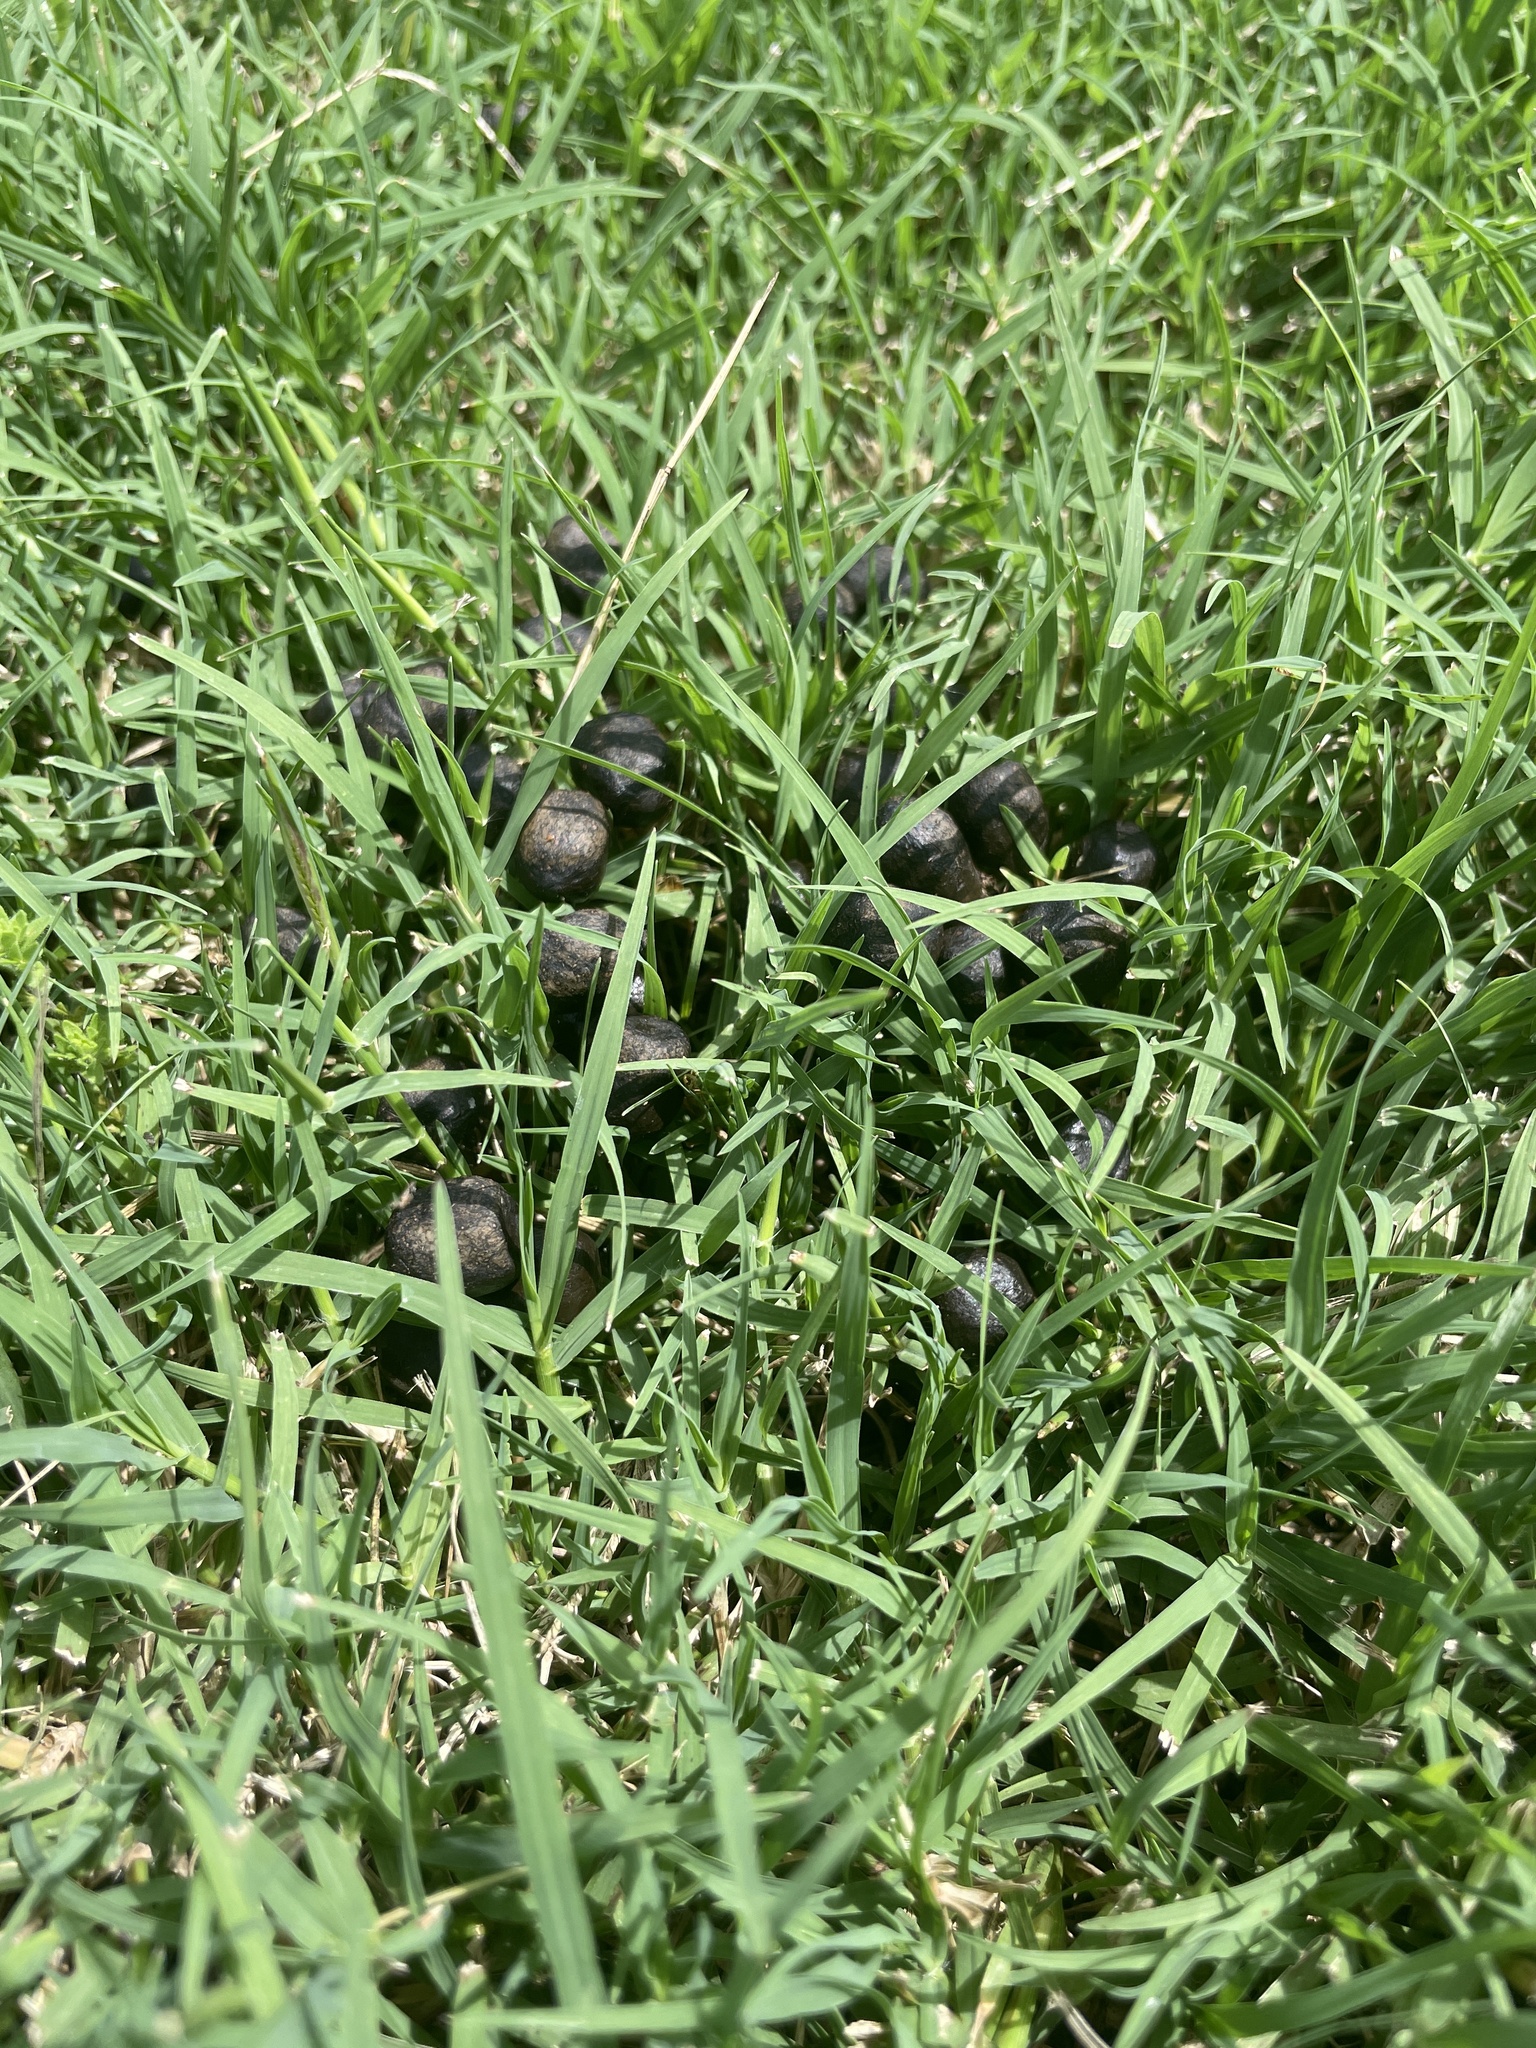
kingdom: Animalia
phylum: Chordata
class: Mammalia
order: Artiodactyla
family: Cervidae
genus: Odocoileus
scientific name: Odocoileus virginianus
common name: White-tailed deer
